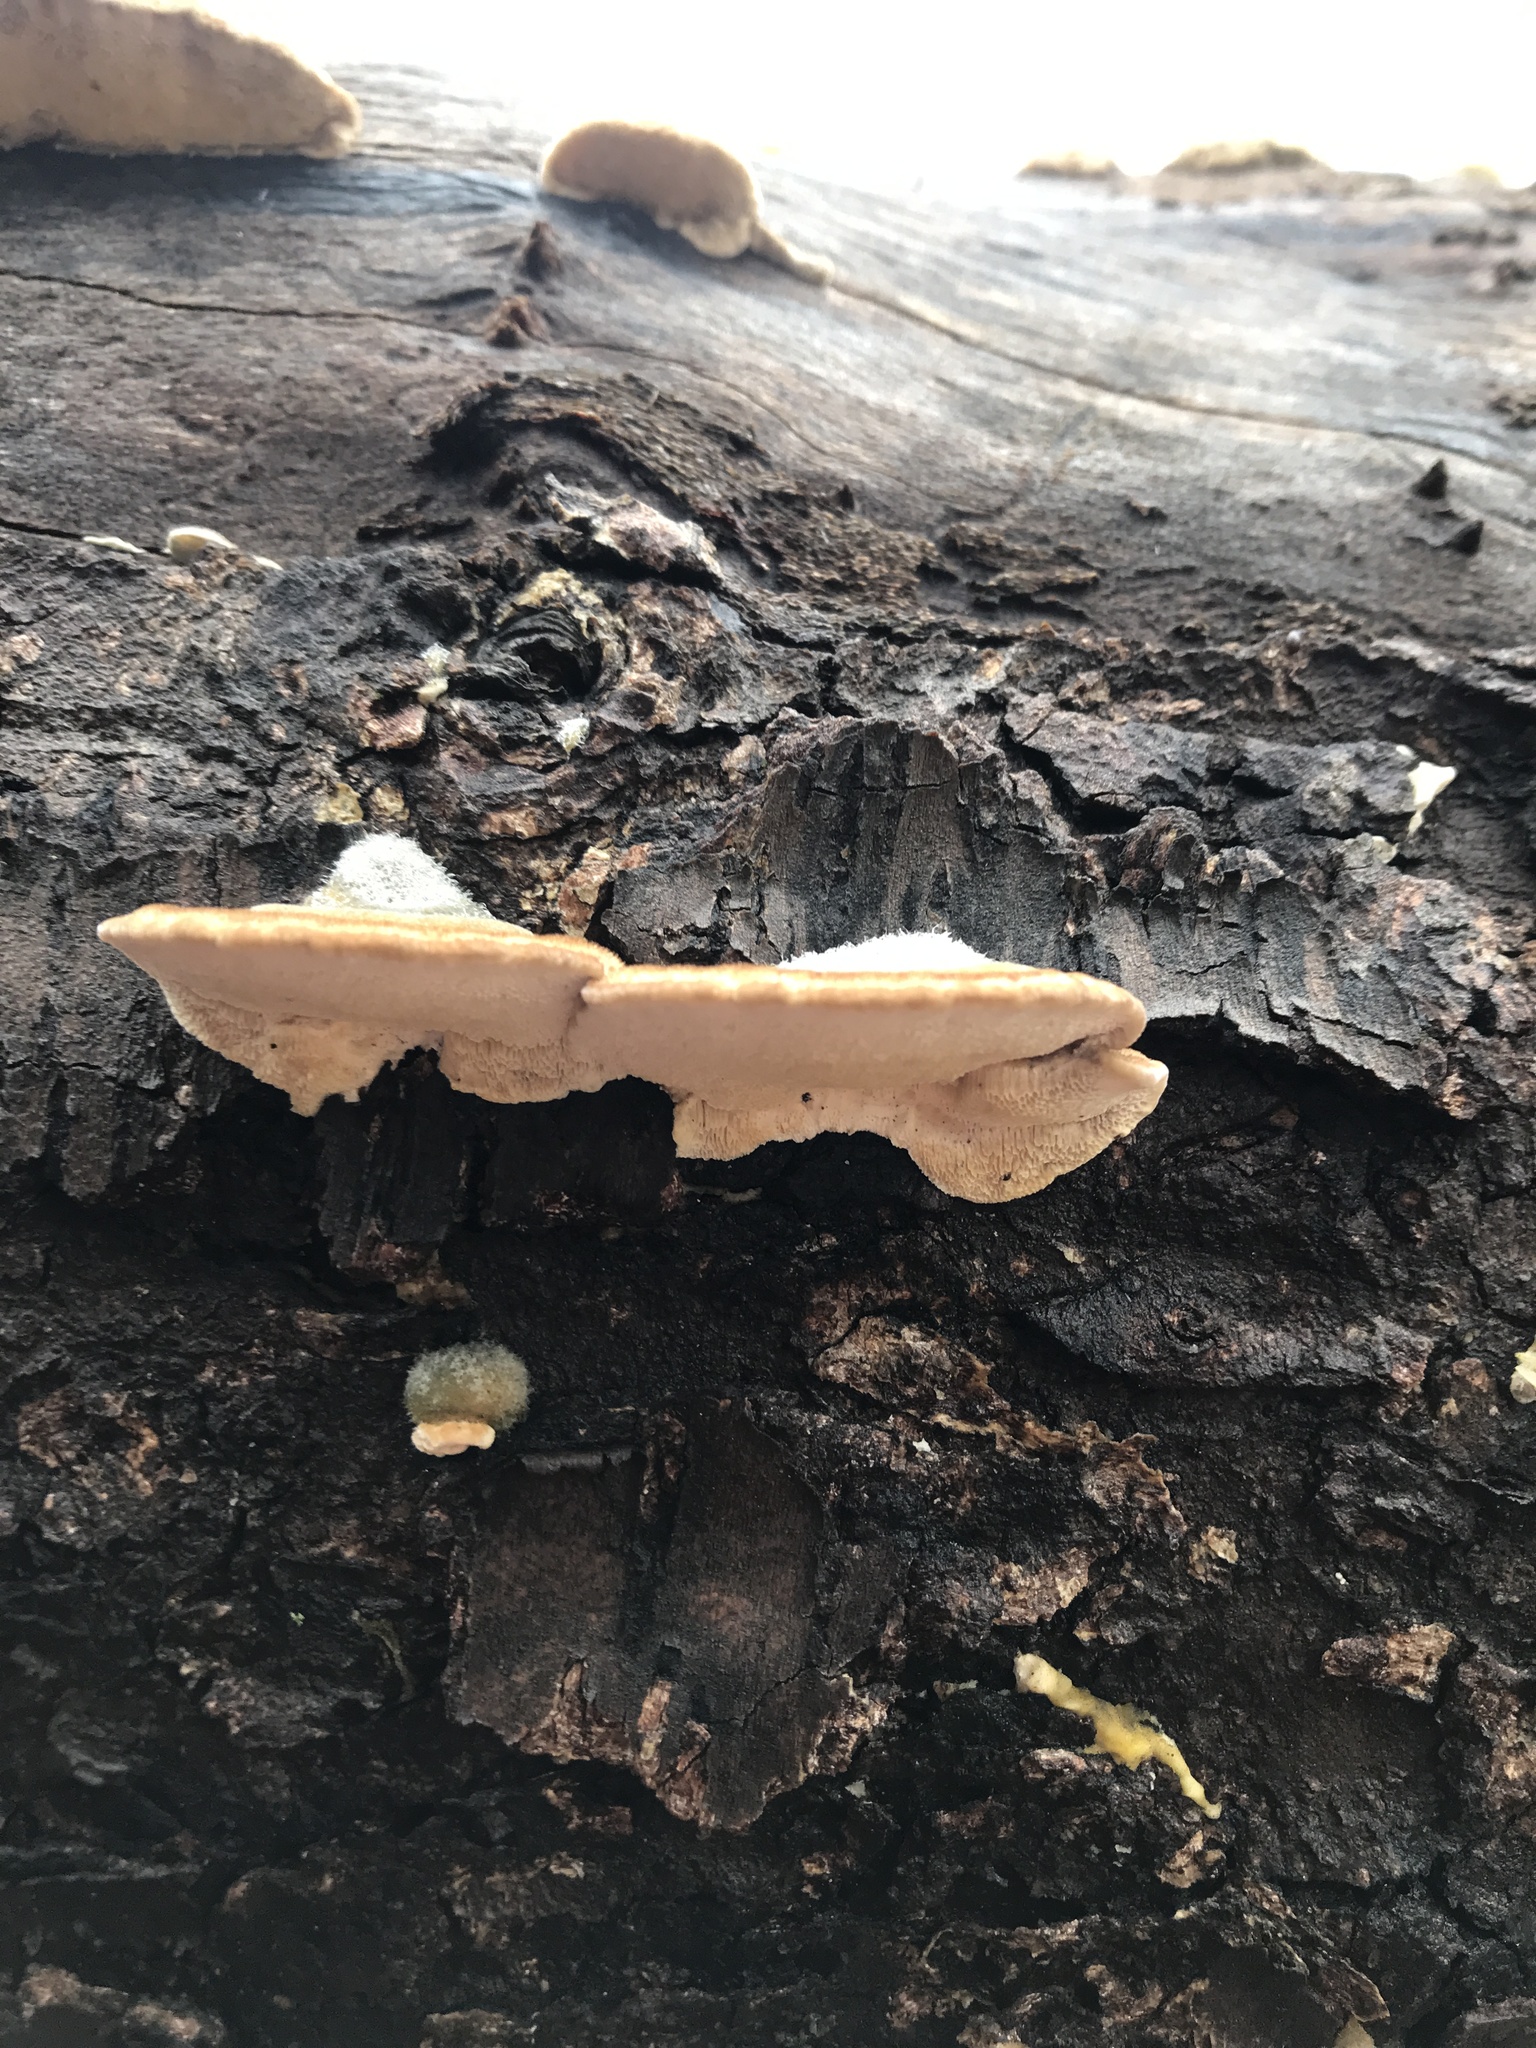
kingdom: Fungi
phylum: Basidiomycota
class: Agaricomycetes
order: Polyporales
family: Polyporaceae
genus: Trametes
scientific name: Trametes hirsuta
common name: Hairy bracket
